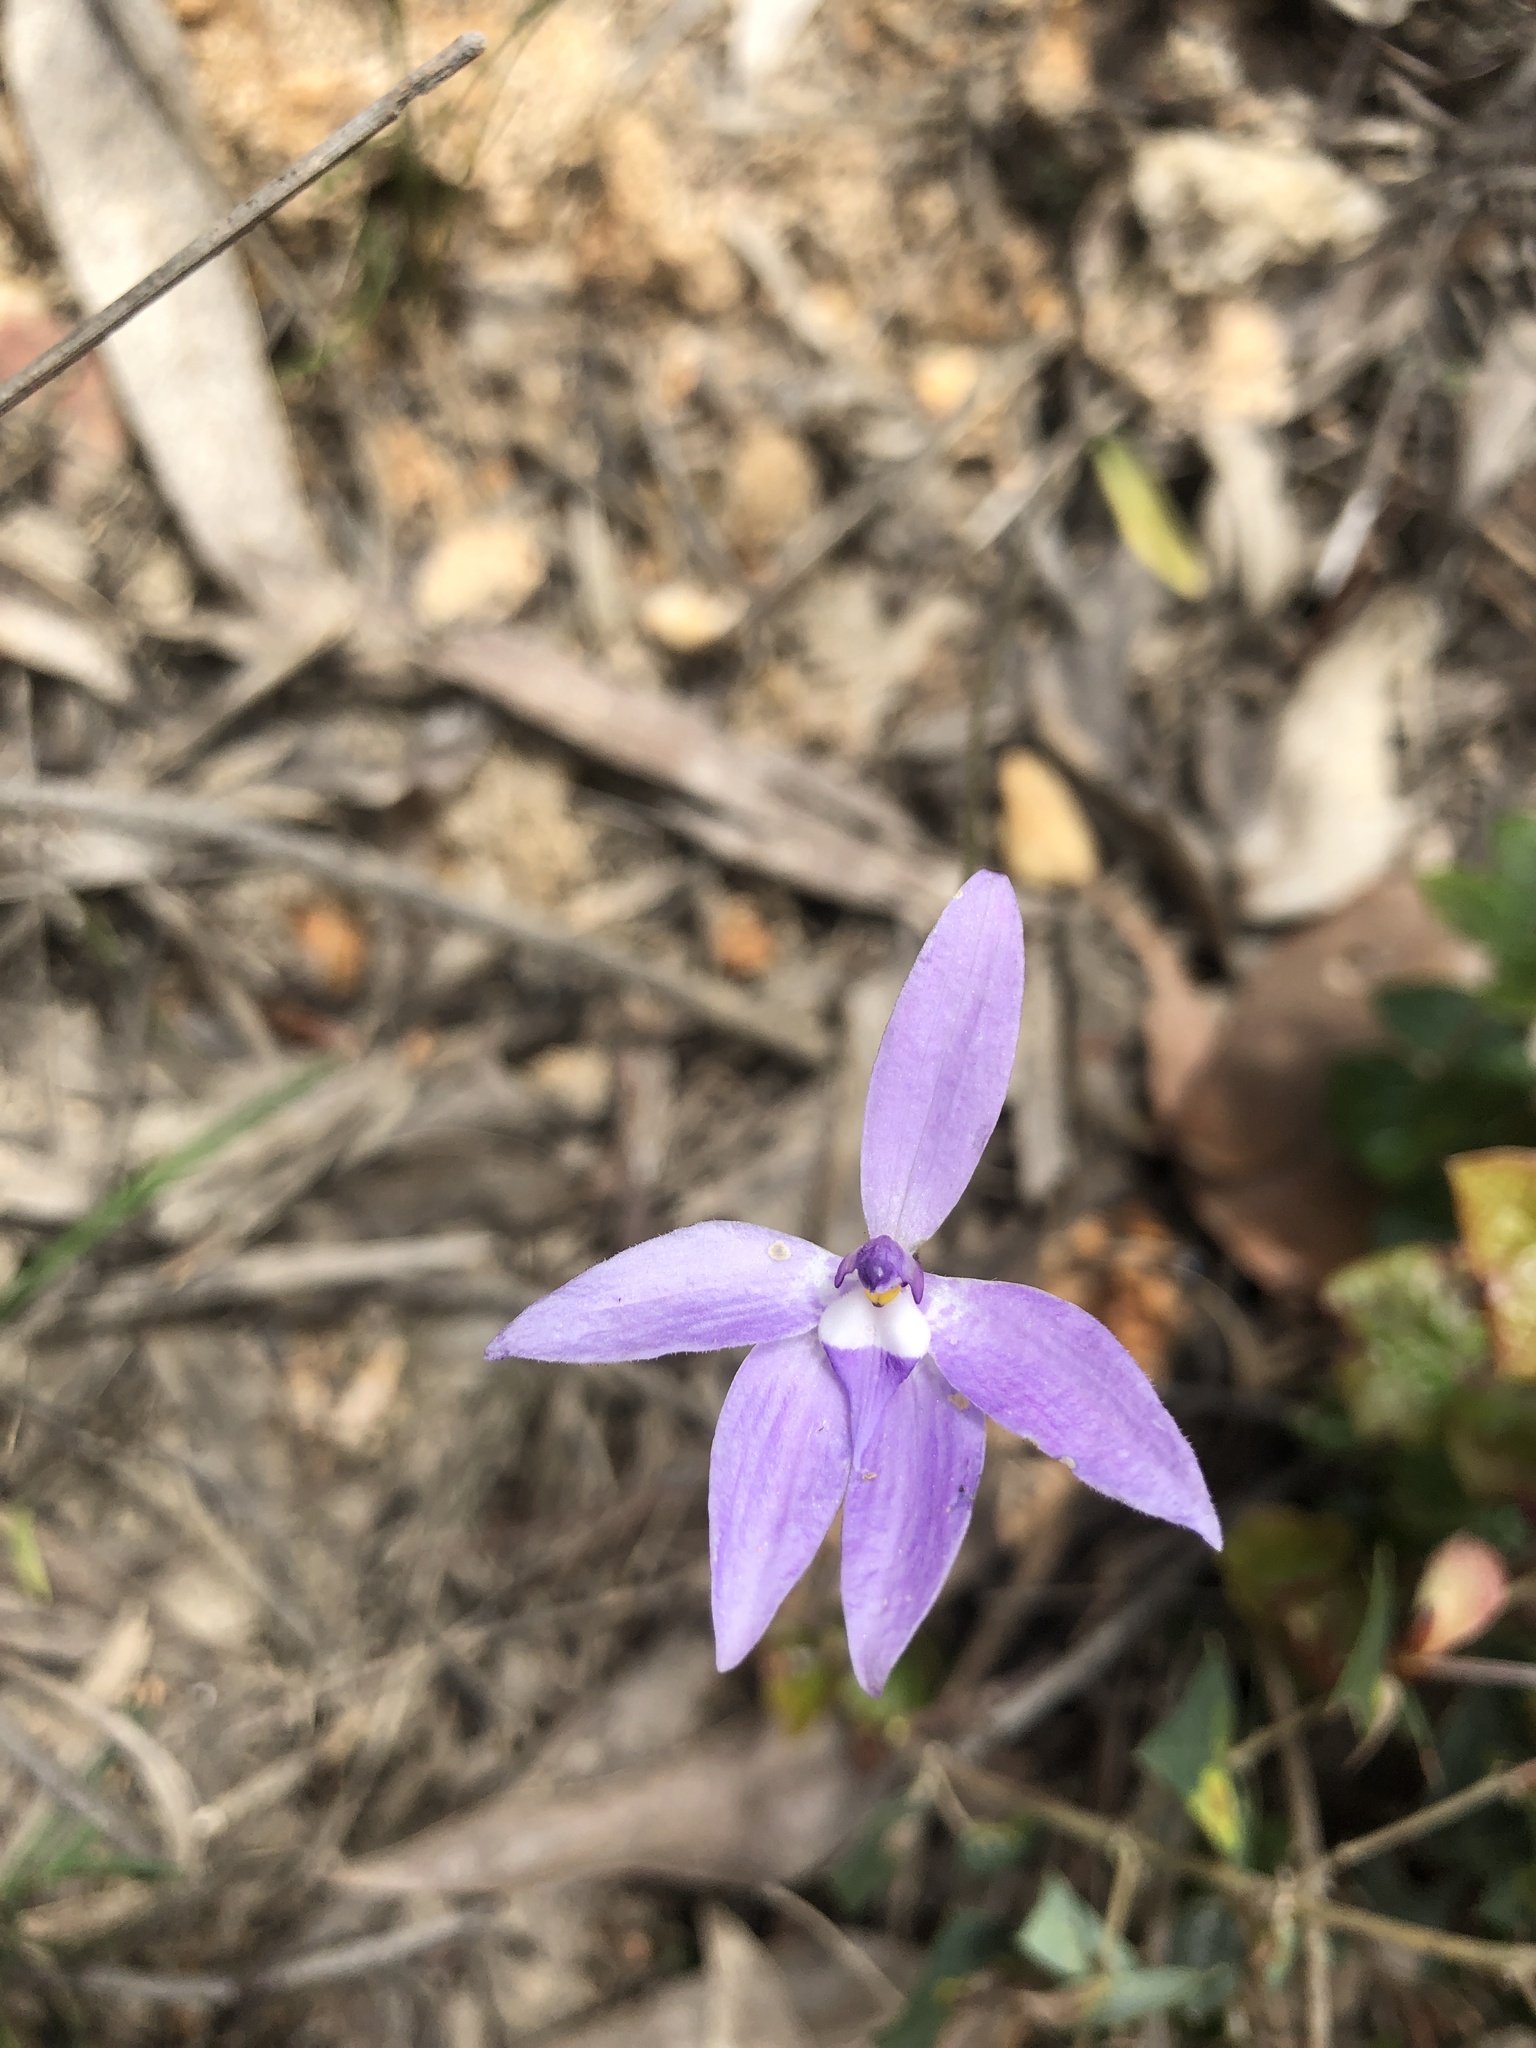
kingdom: Plantae
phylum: Tracheophyta
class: Liliopsida
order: Asparagales
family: Orchidaceae
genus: Caladenia
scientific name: Caladenia major
